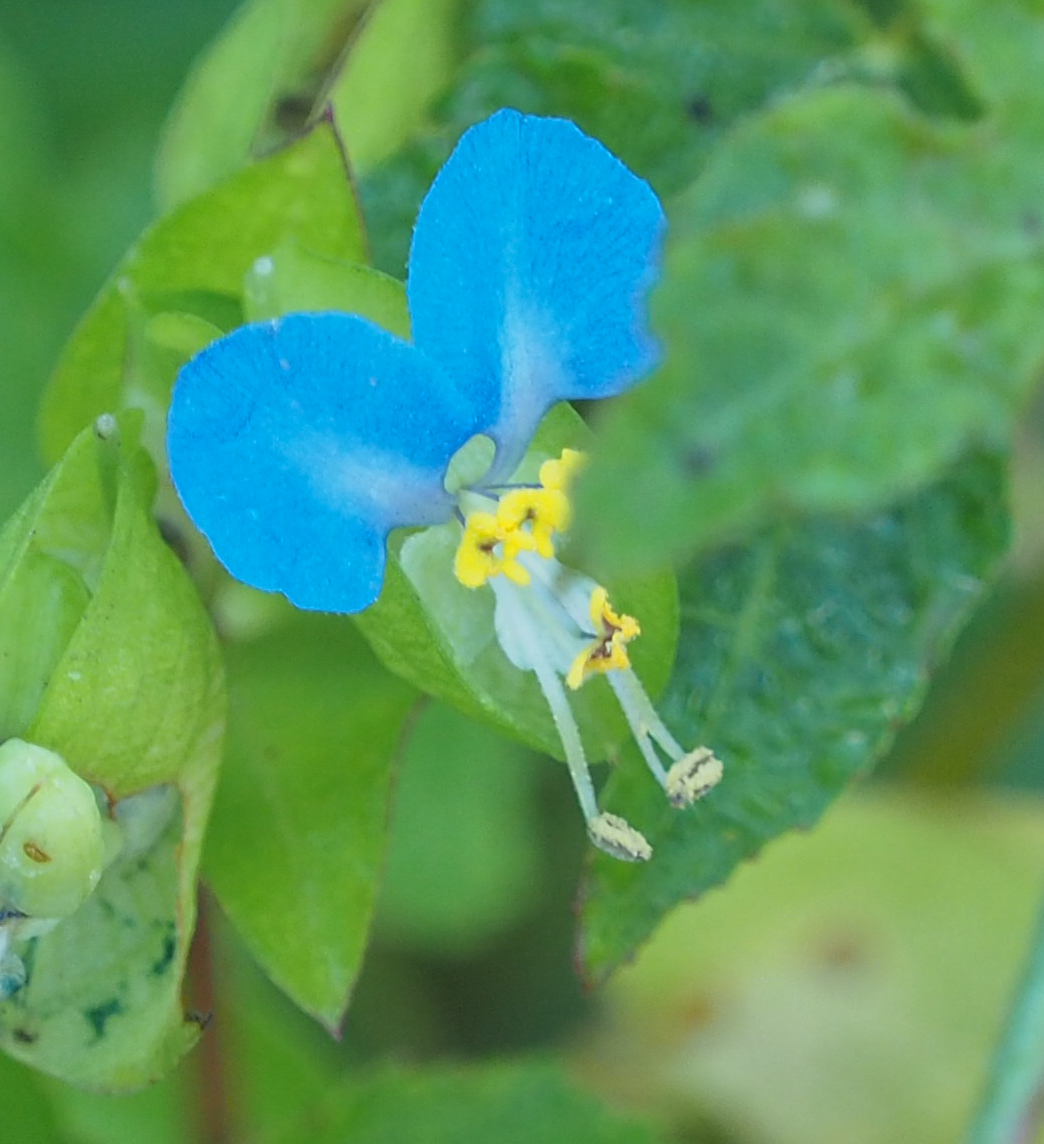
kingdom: Plantae
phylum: Tracheophyta
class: Liliopsida
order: Commelinales
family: Commelinaceae
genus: Commelina
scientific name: Commelina communis
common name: Asiatic dayflower
